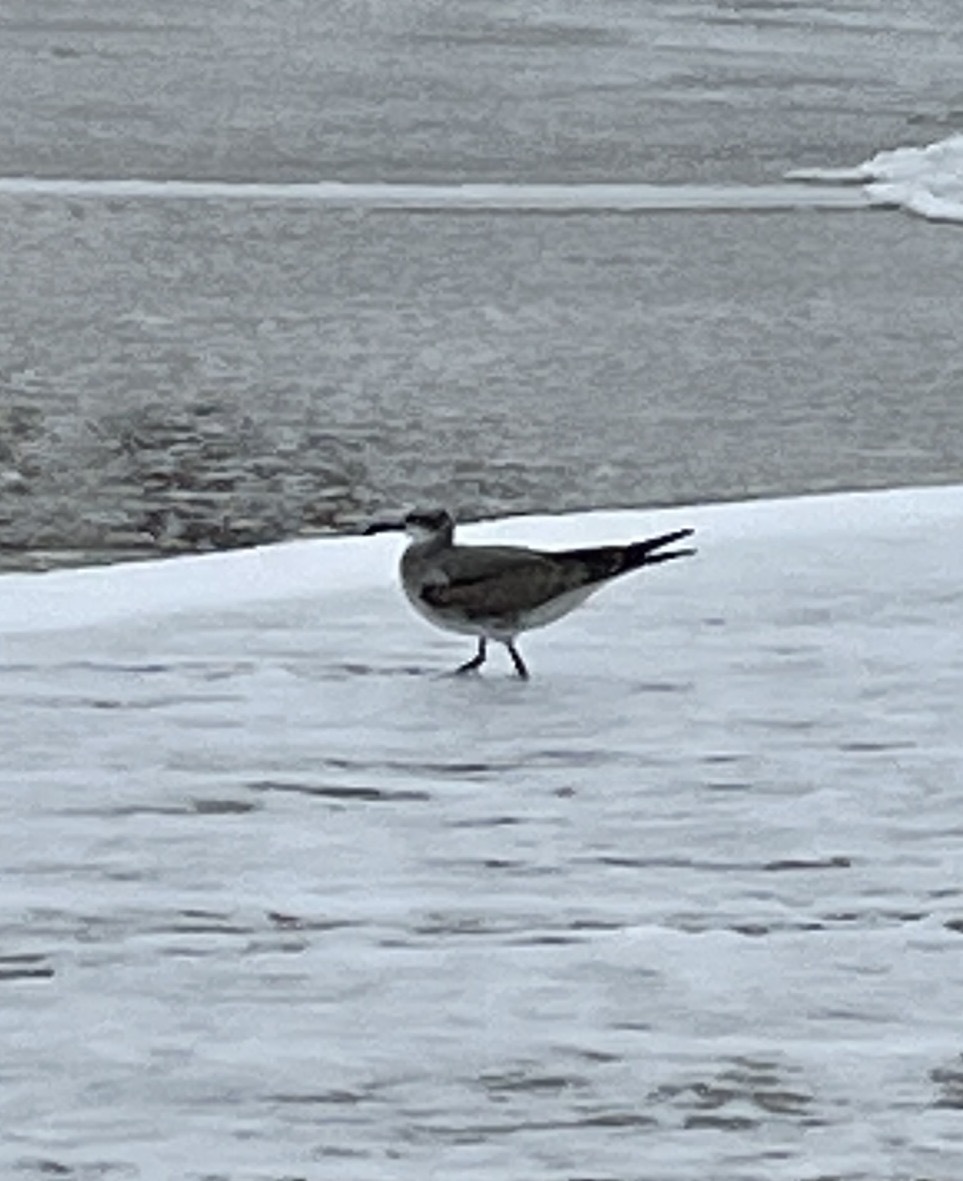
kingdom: Animalia
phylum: Chordata
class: Aves
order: Charadriiformes
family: Laridae
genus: Leucophaeus
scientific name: Leucophaeus atricilla
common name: Laughing gull
